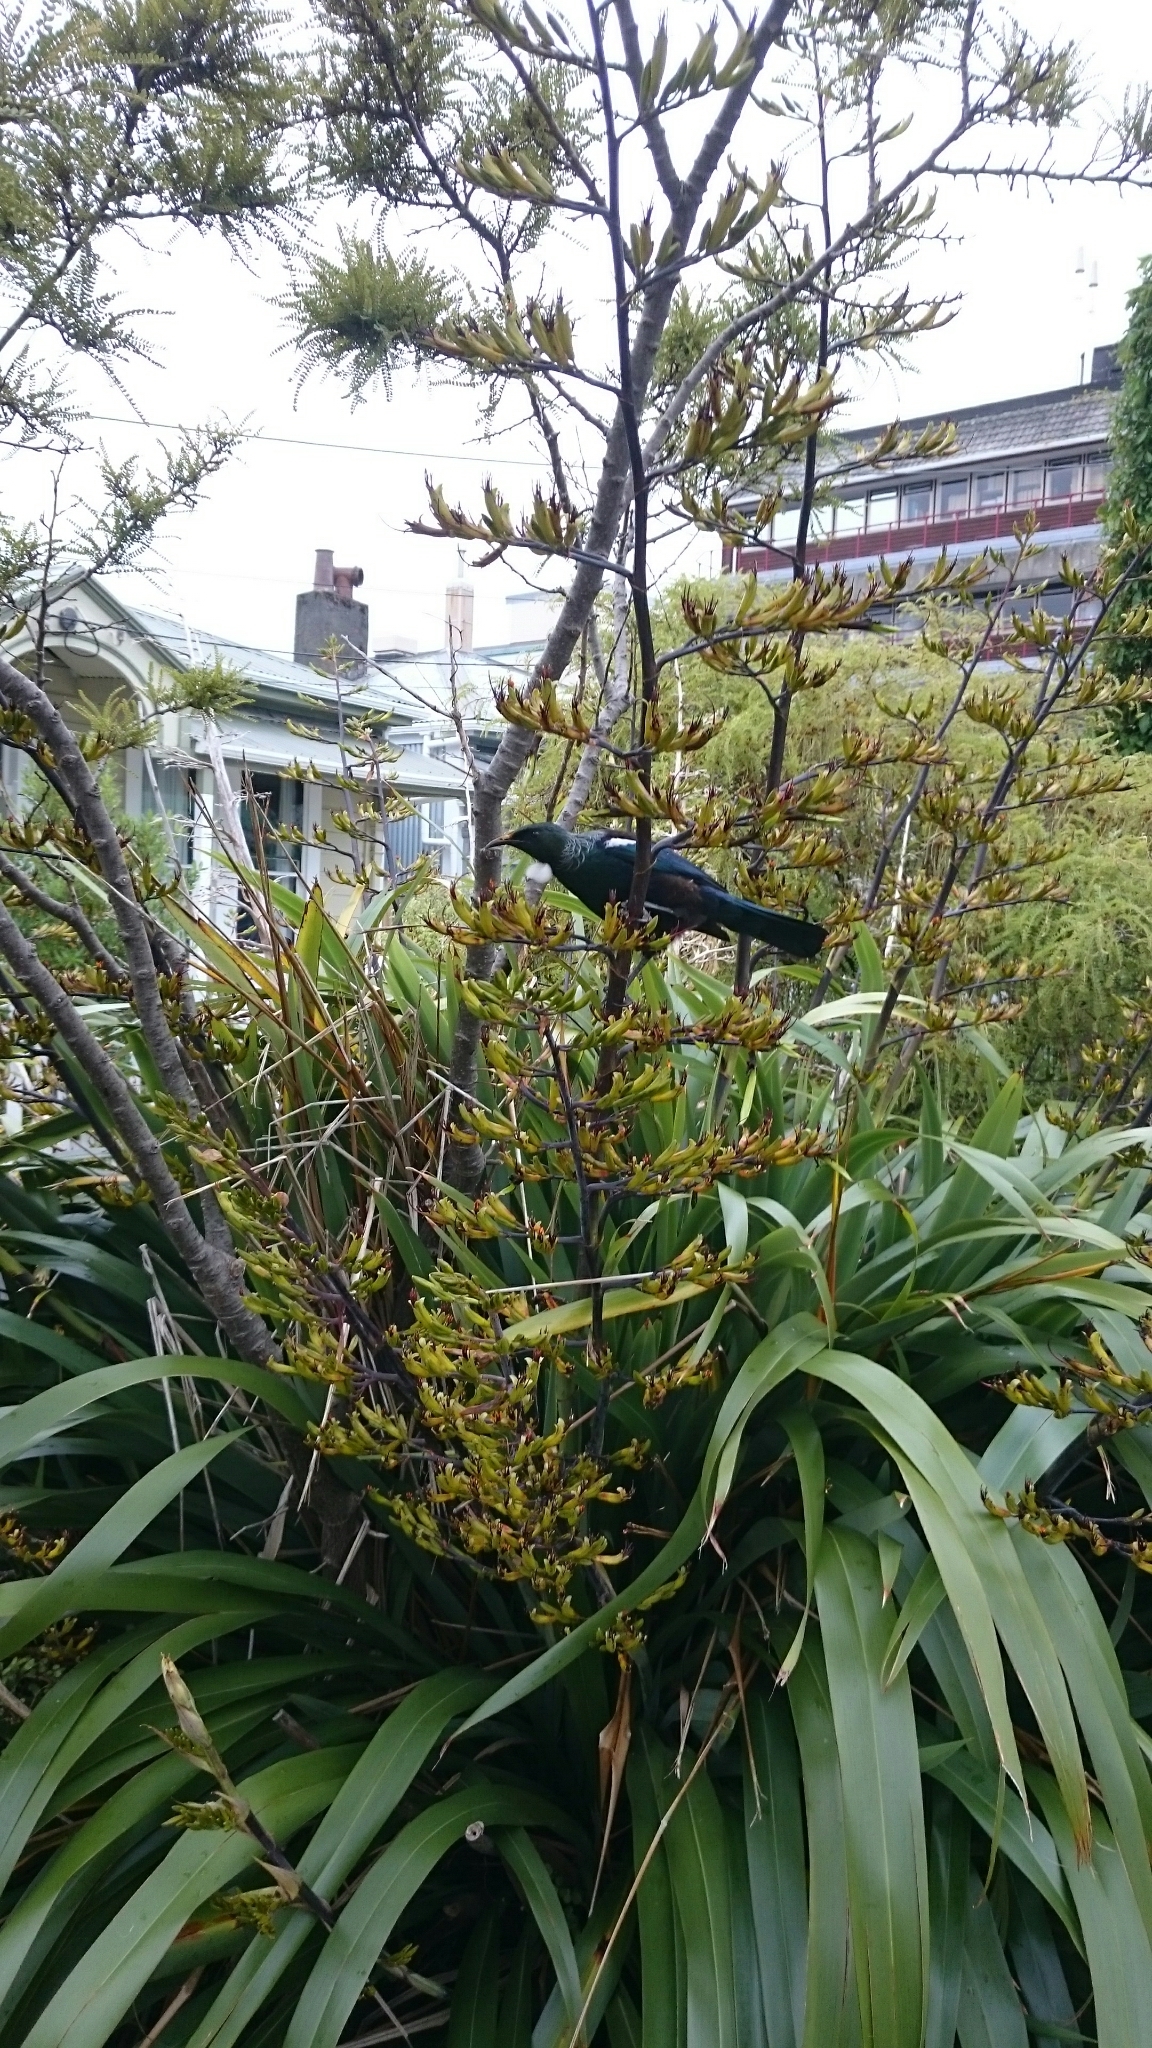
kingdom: Animalia
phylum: Chordata
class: Aves
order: Passeriformes
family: Meliphagidae
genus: Prosthemadera
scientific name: Prosthemadera novaeseelandiae
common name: Tui
